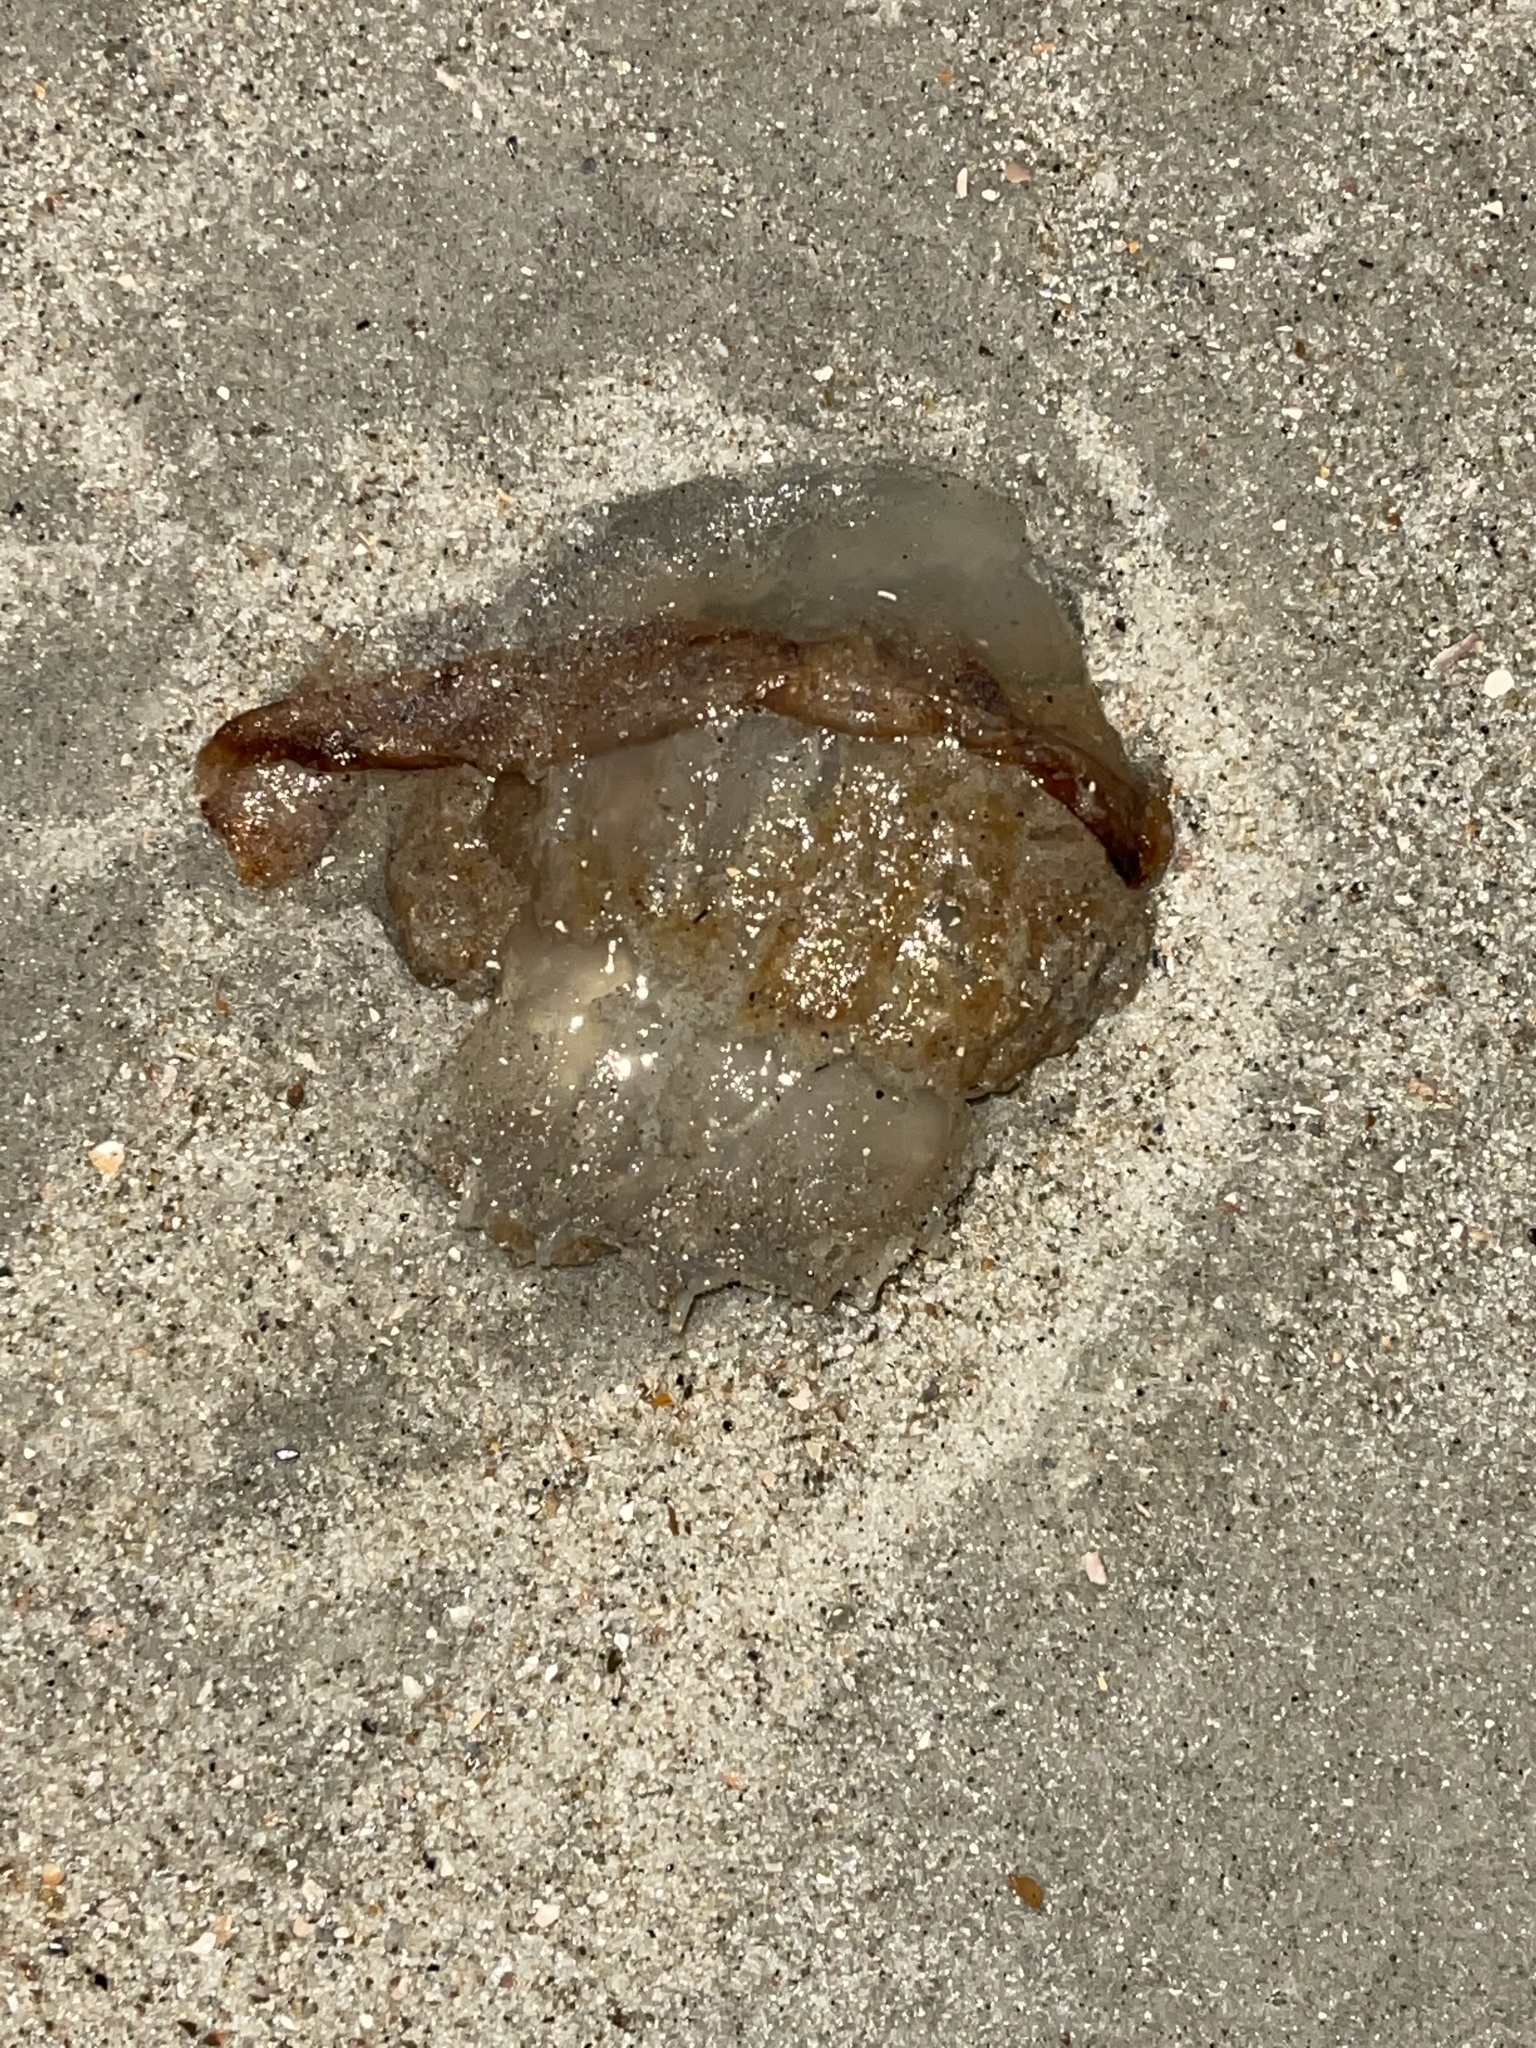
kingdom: Animalia
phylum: Cnidaria
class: Scyphozoa
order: Rhizostomeae
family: Stomolophidae
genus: Stomolophus
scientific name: Stomolophus meleagris
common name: Cabbagehead
